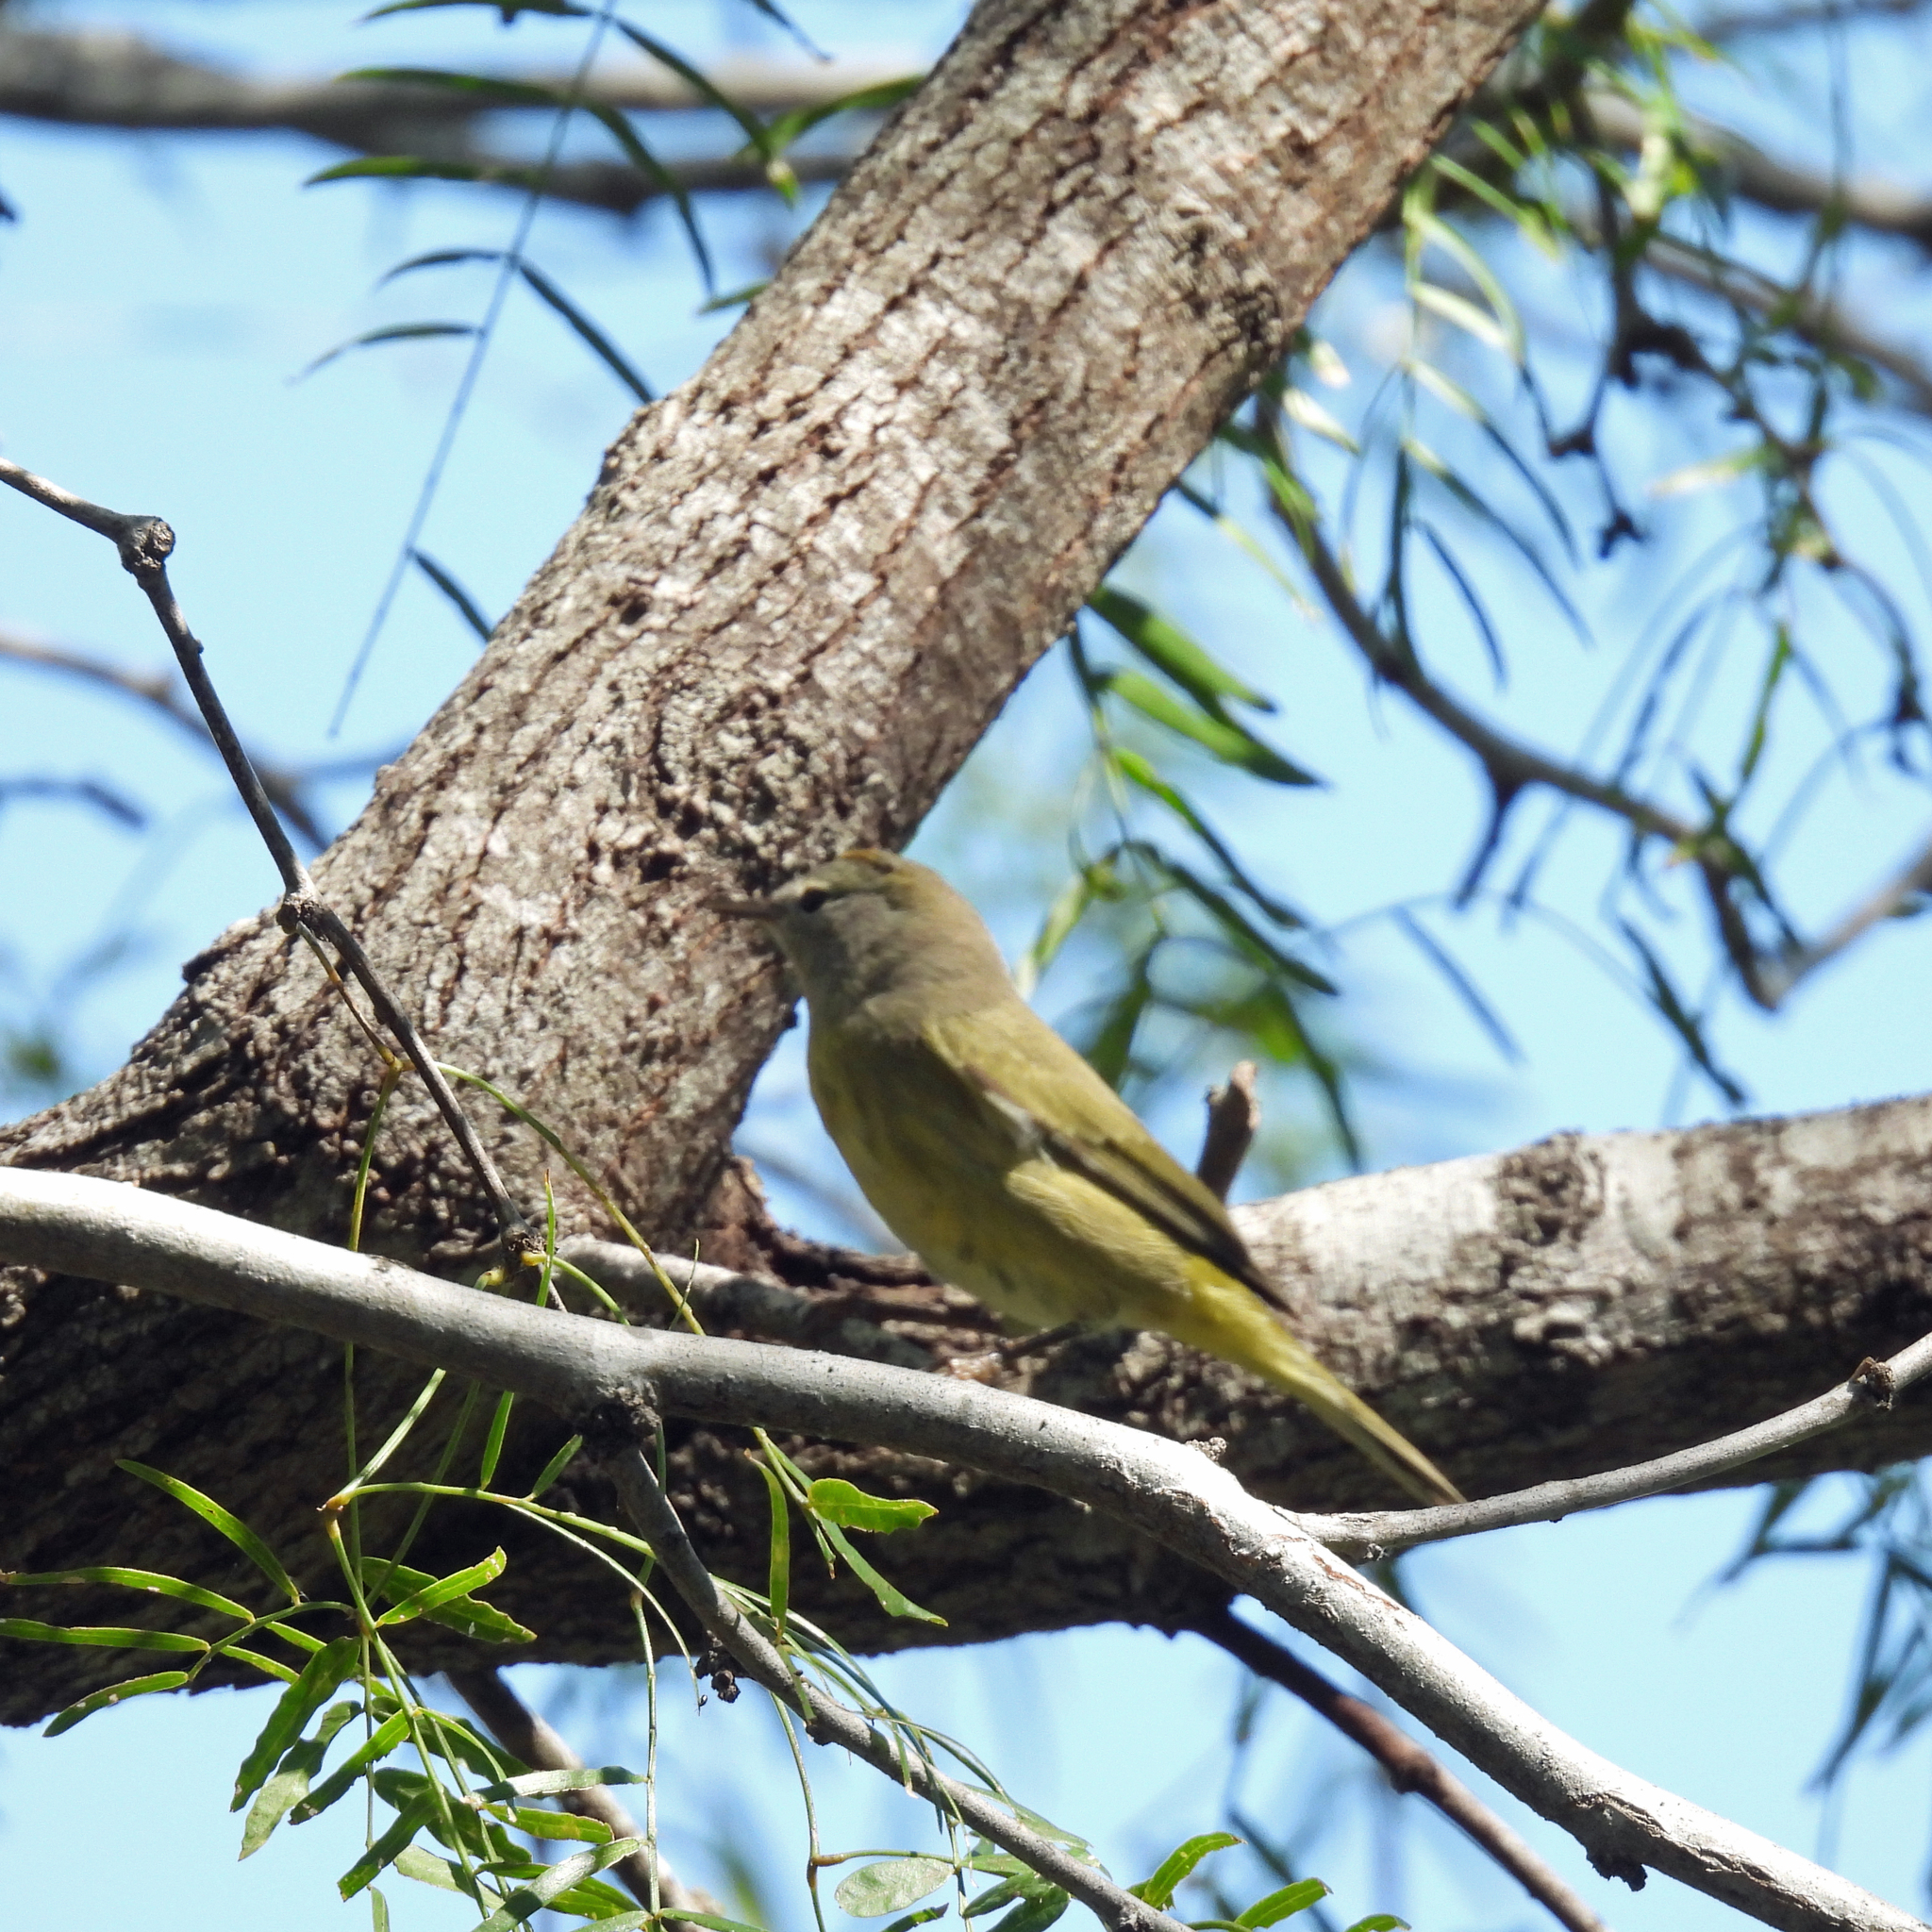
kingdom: Animalia
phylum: Chordata
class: Aves
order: Passeriformes
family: Parulidae
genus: Leiothlypis
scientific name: Leiothlypis celata
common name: Orange-crowned warbler
